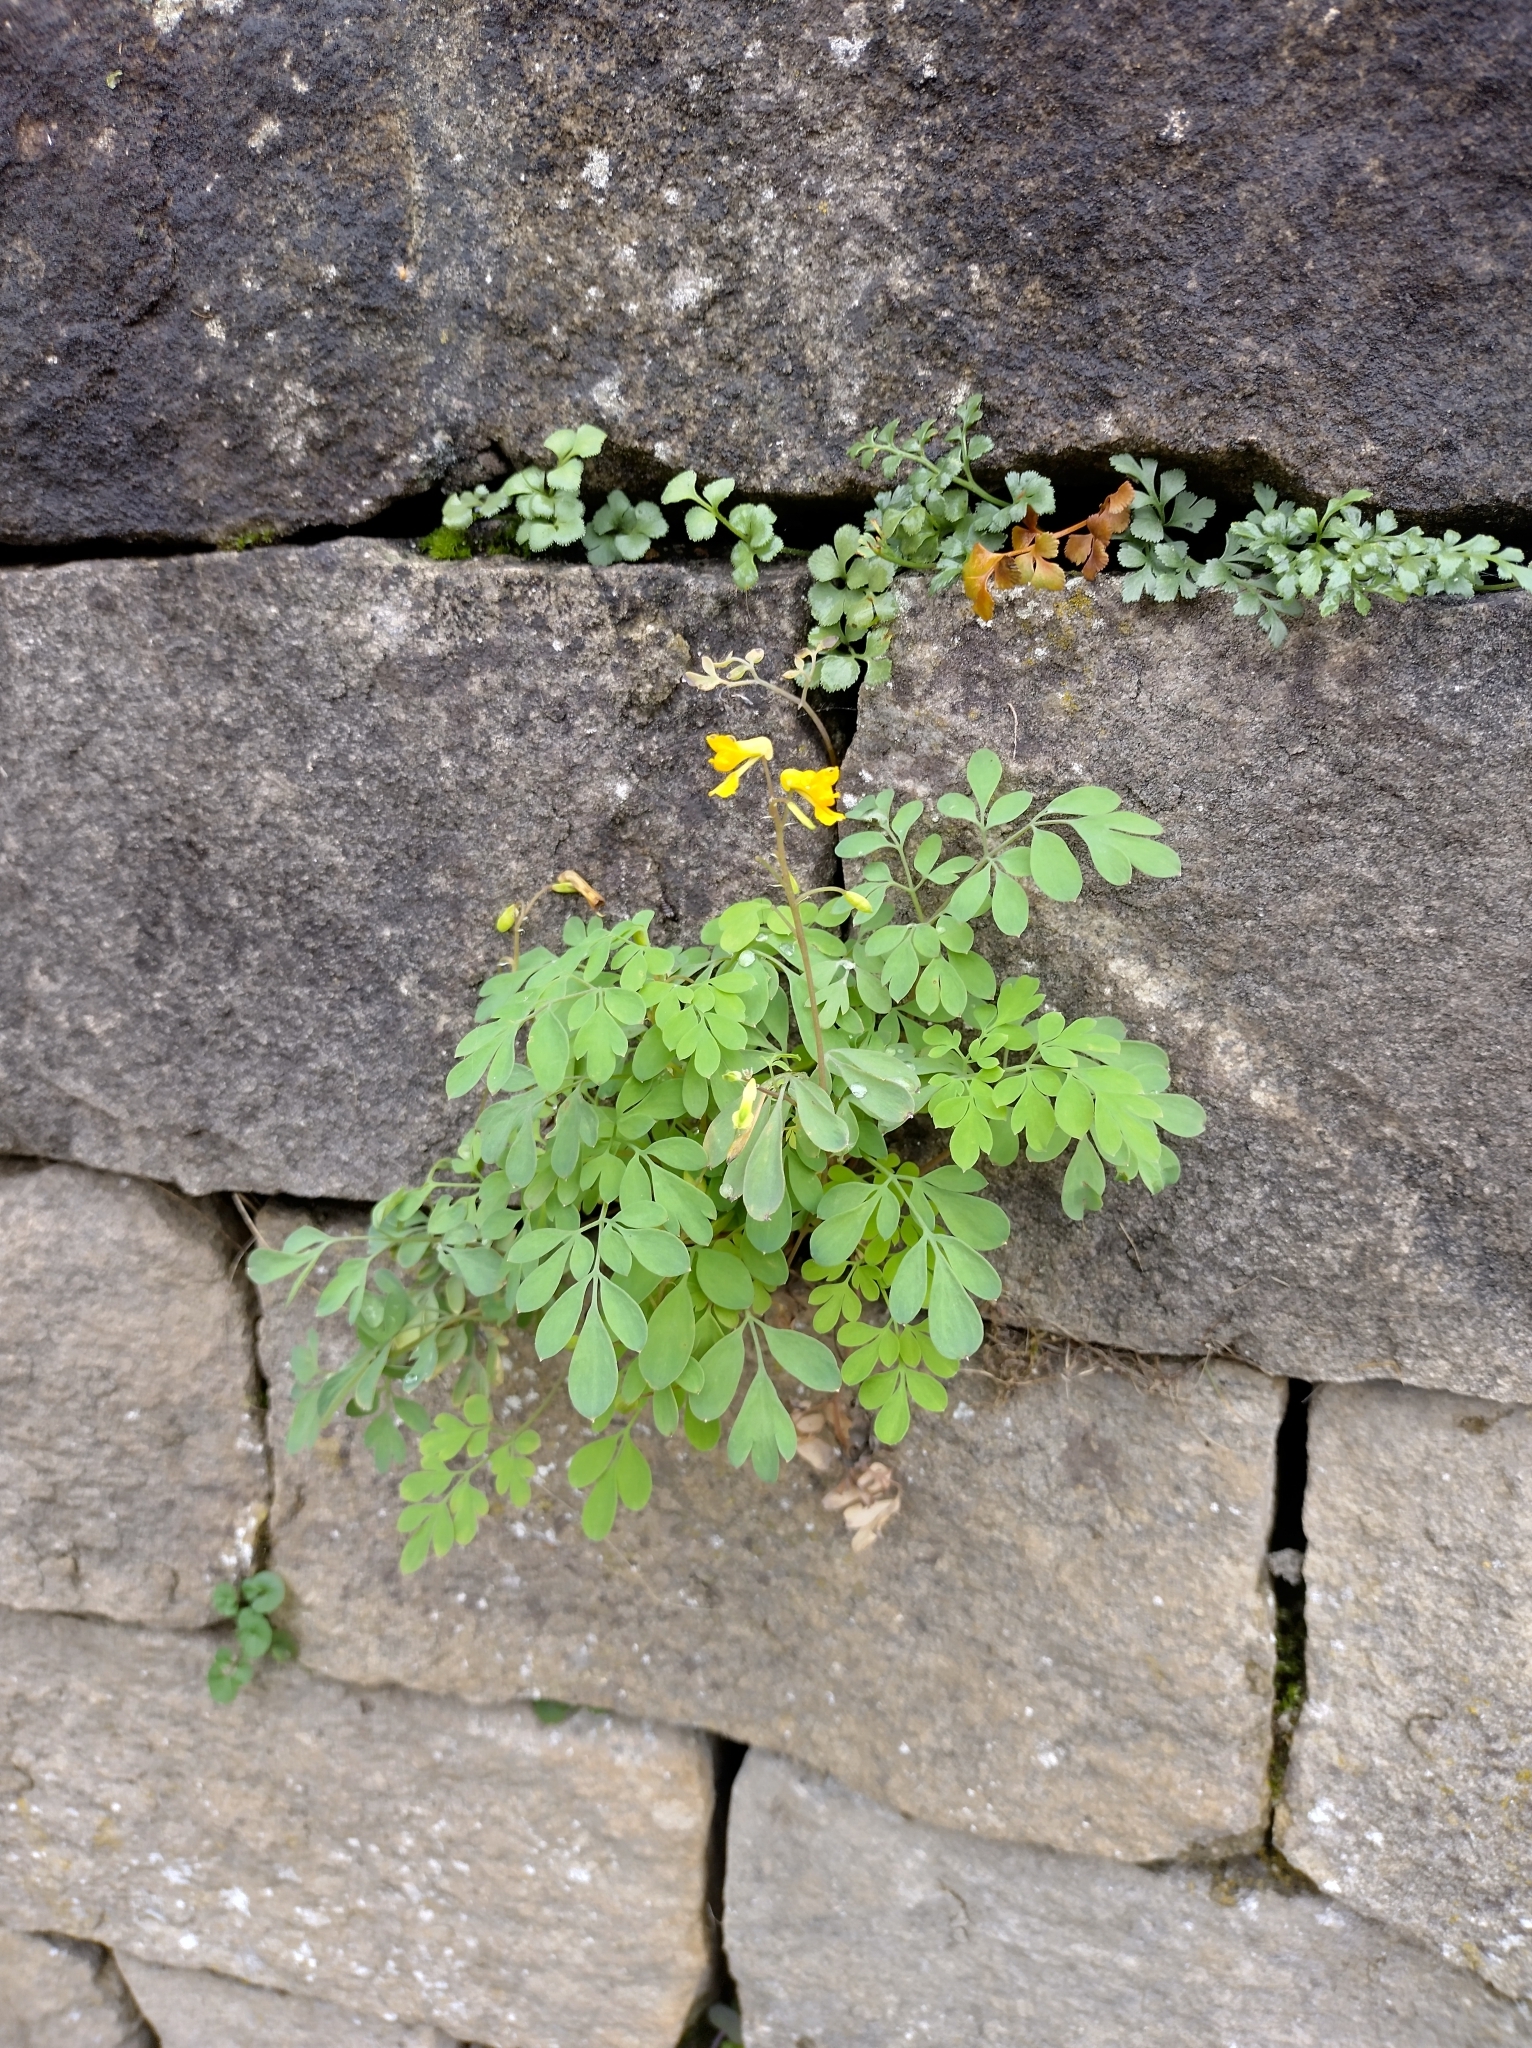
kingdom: Plantae
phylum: Tracheophyta
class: Magnoliopsida
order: Ranunculales
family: Papaveraceae
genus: Pseudofumaria
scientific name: Pseudofumaria lutea
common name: Yellow corydalis
